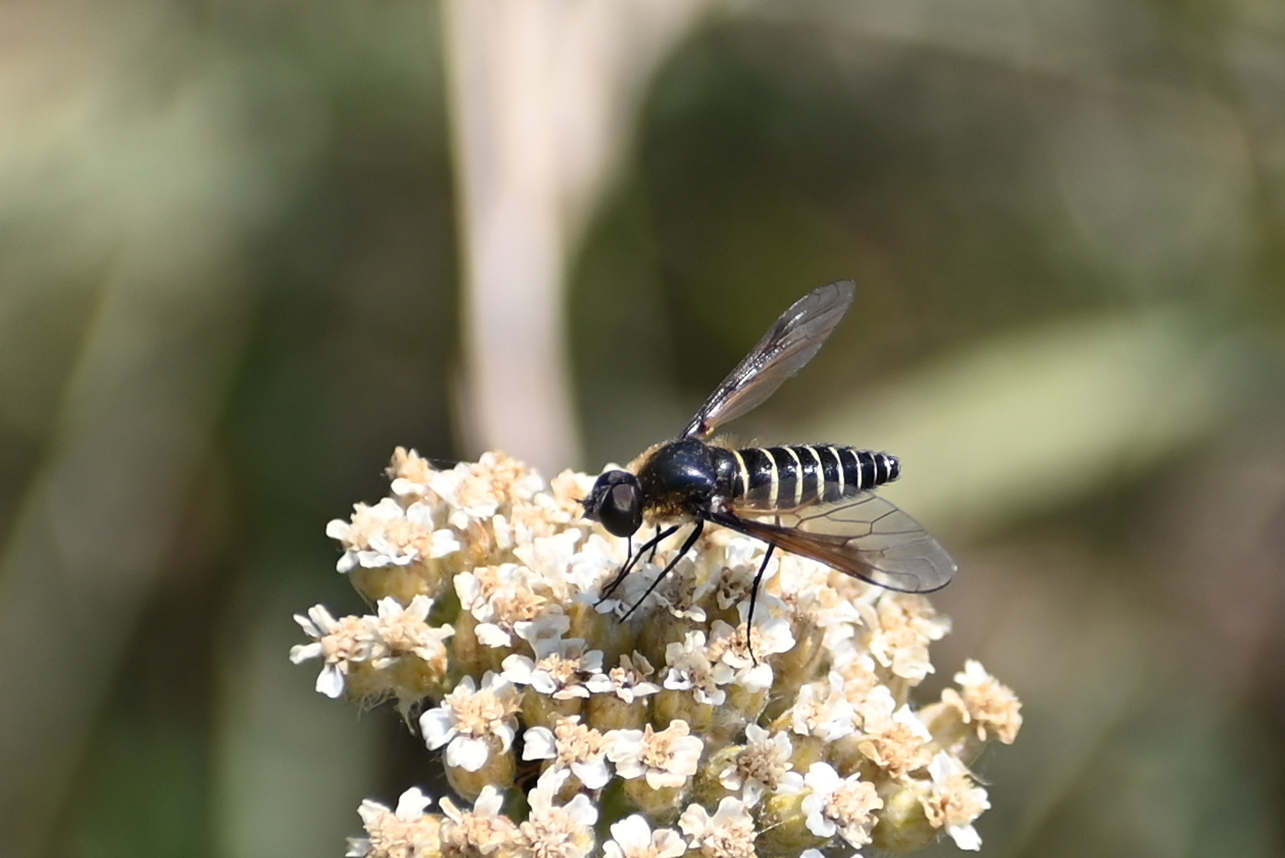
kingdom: Animalia
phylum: Arthropoda
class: Insecta
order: Diptera
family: Bombyliidae
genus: Lomatia
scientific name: Lomatia lateralis
